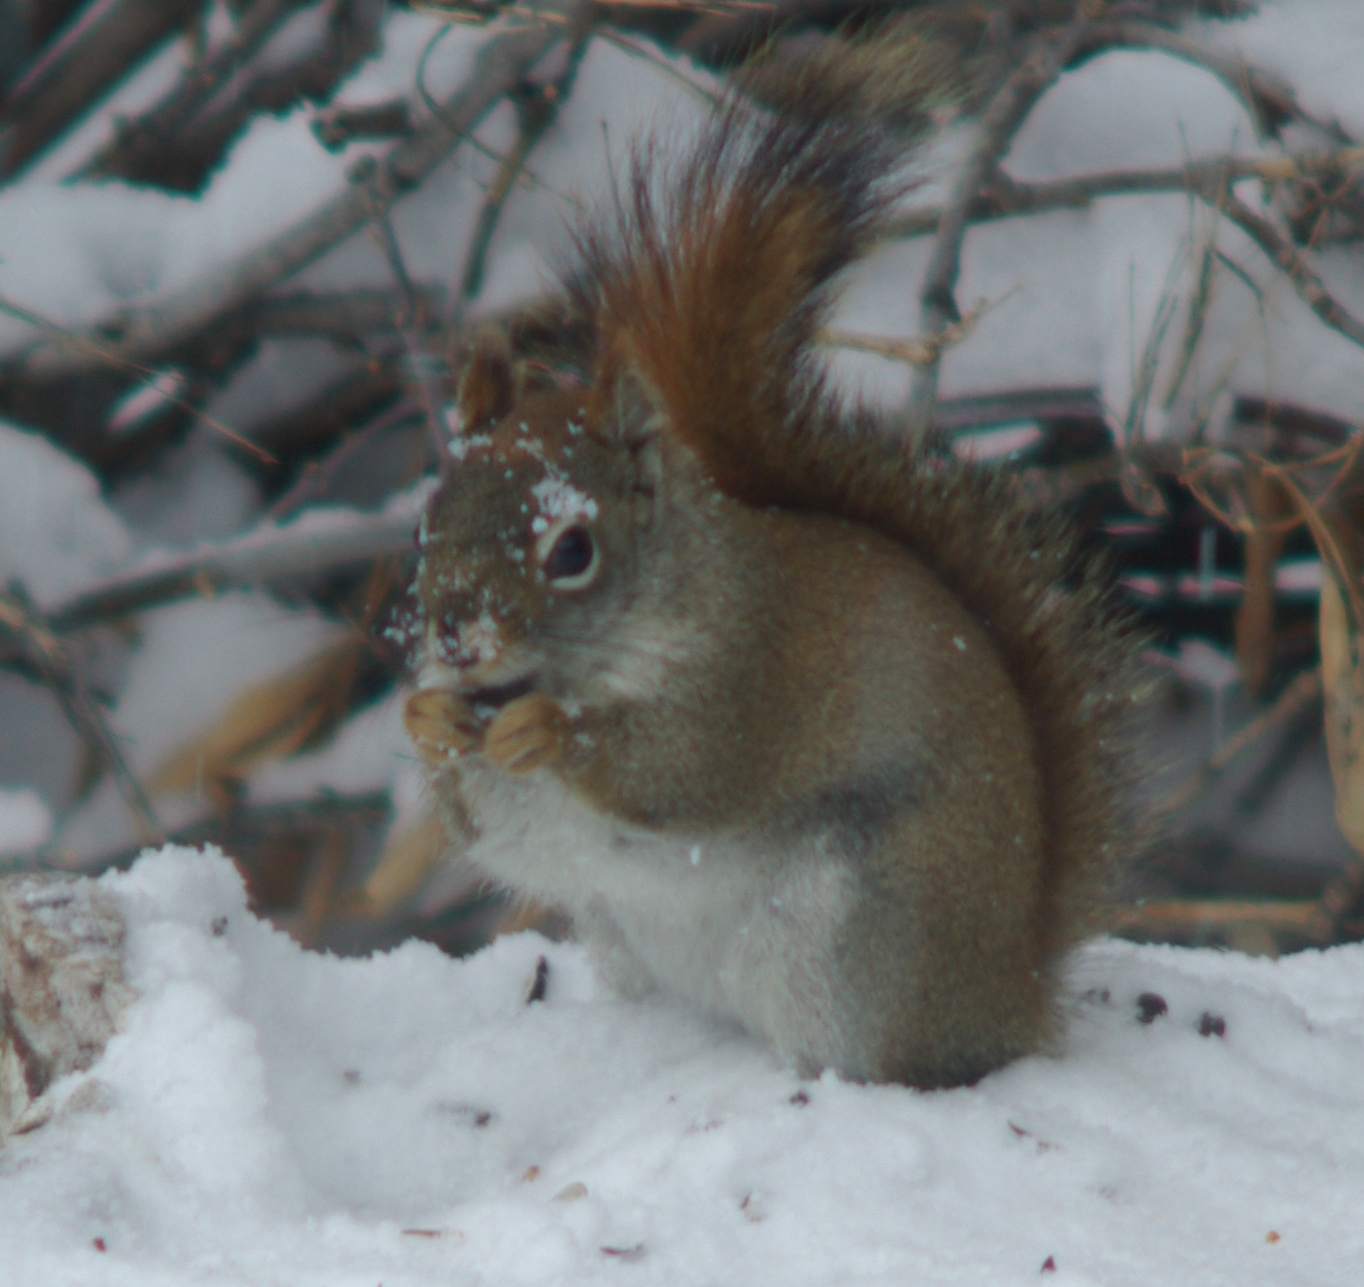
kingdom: Animalia
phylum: Chordata
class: Mammalia
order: Rodentia
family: Sciuridae
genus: Tamiasciurus
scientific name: Tamiasciurus hudsonicus
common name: Red squirrel
